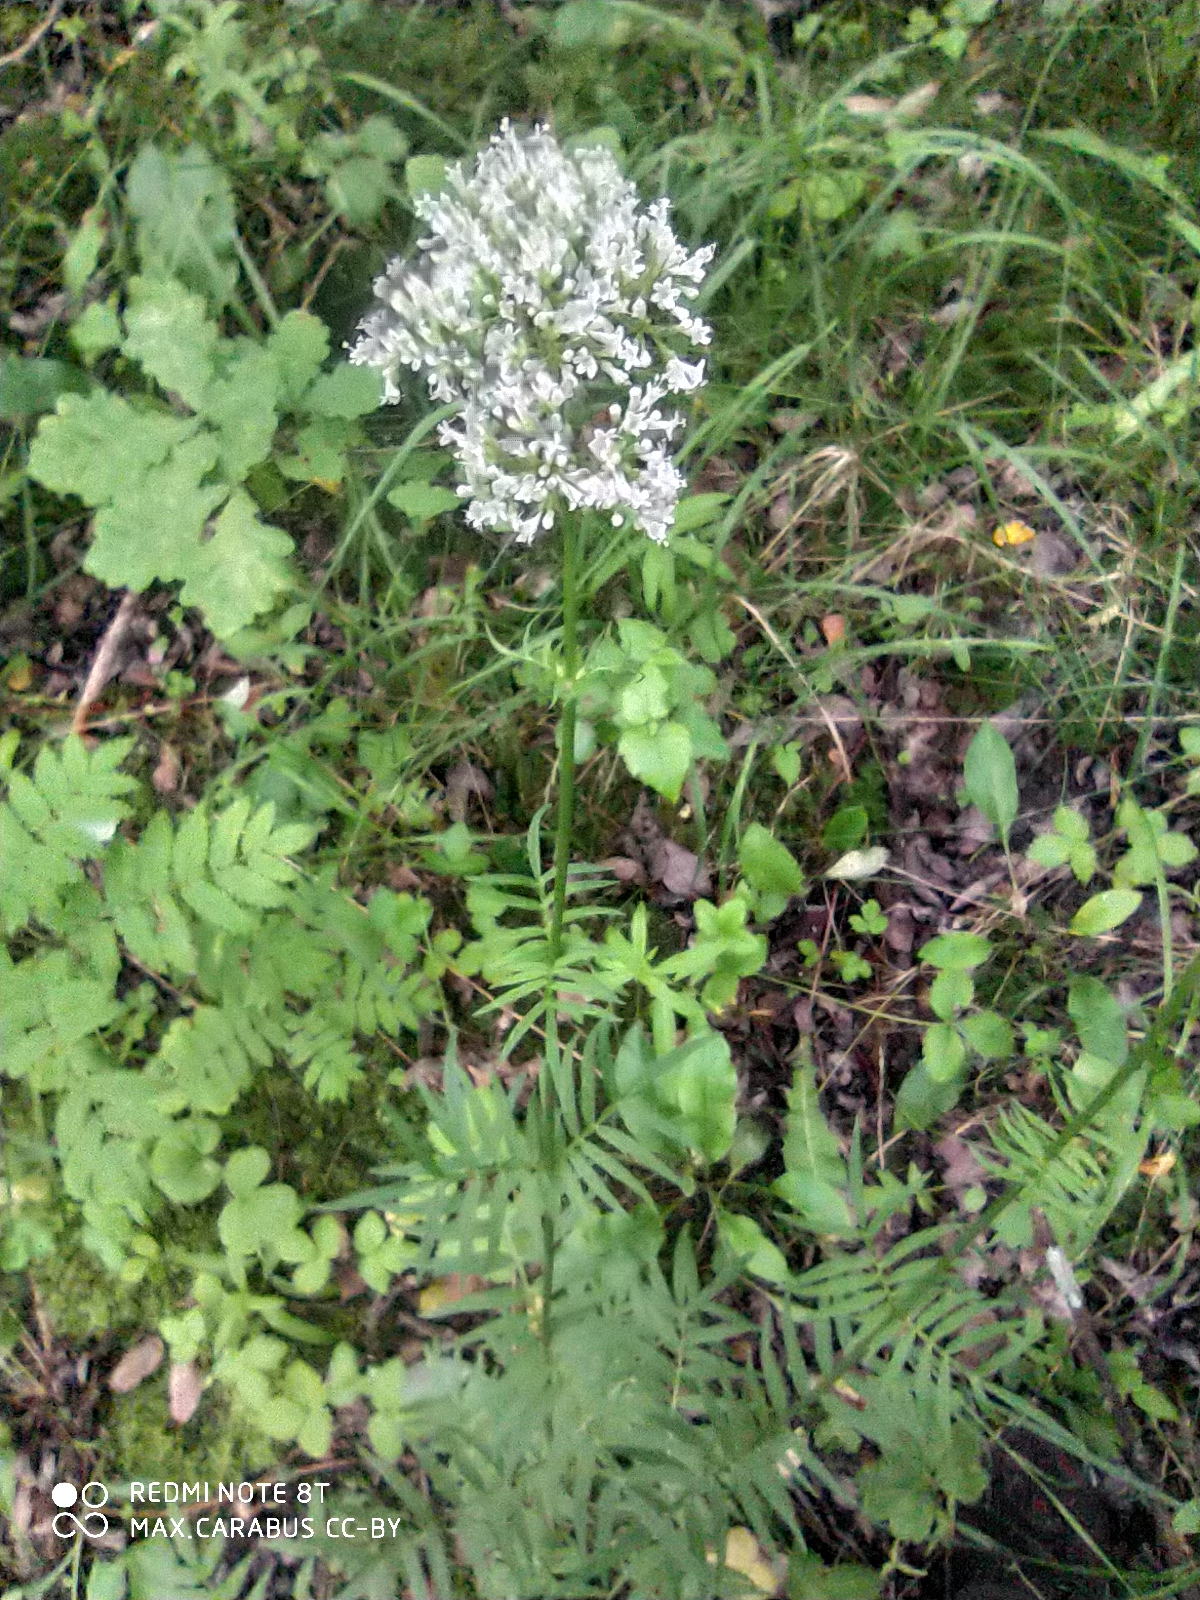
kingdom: Plantae
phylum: Tracheophyta
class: Magnoliopsida
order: Dipsacales
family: Caprifoliaceae
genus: Valeriana
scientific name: Valeriana officinalis
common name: Common valerian
